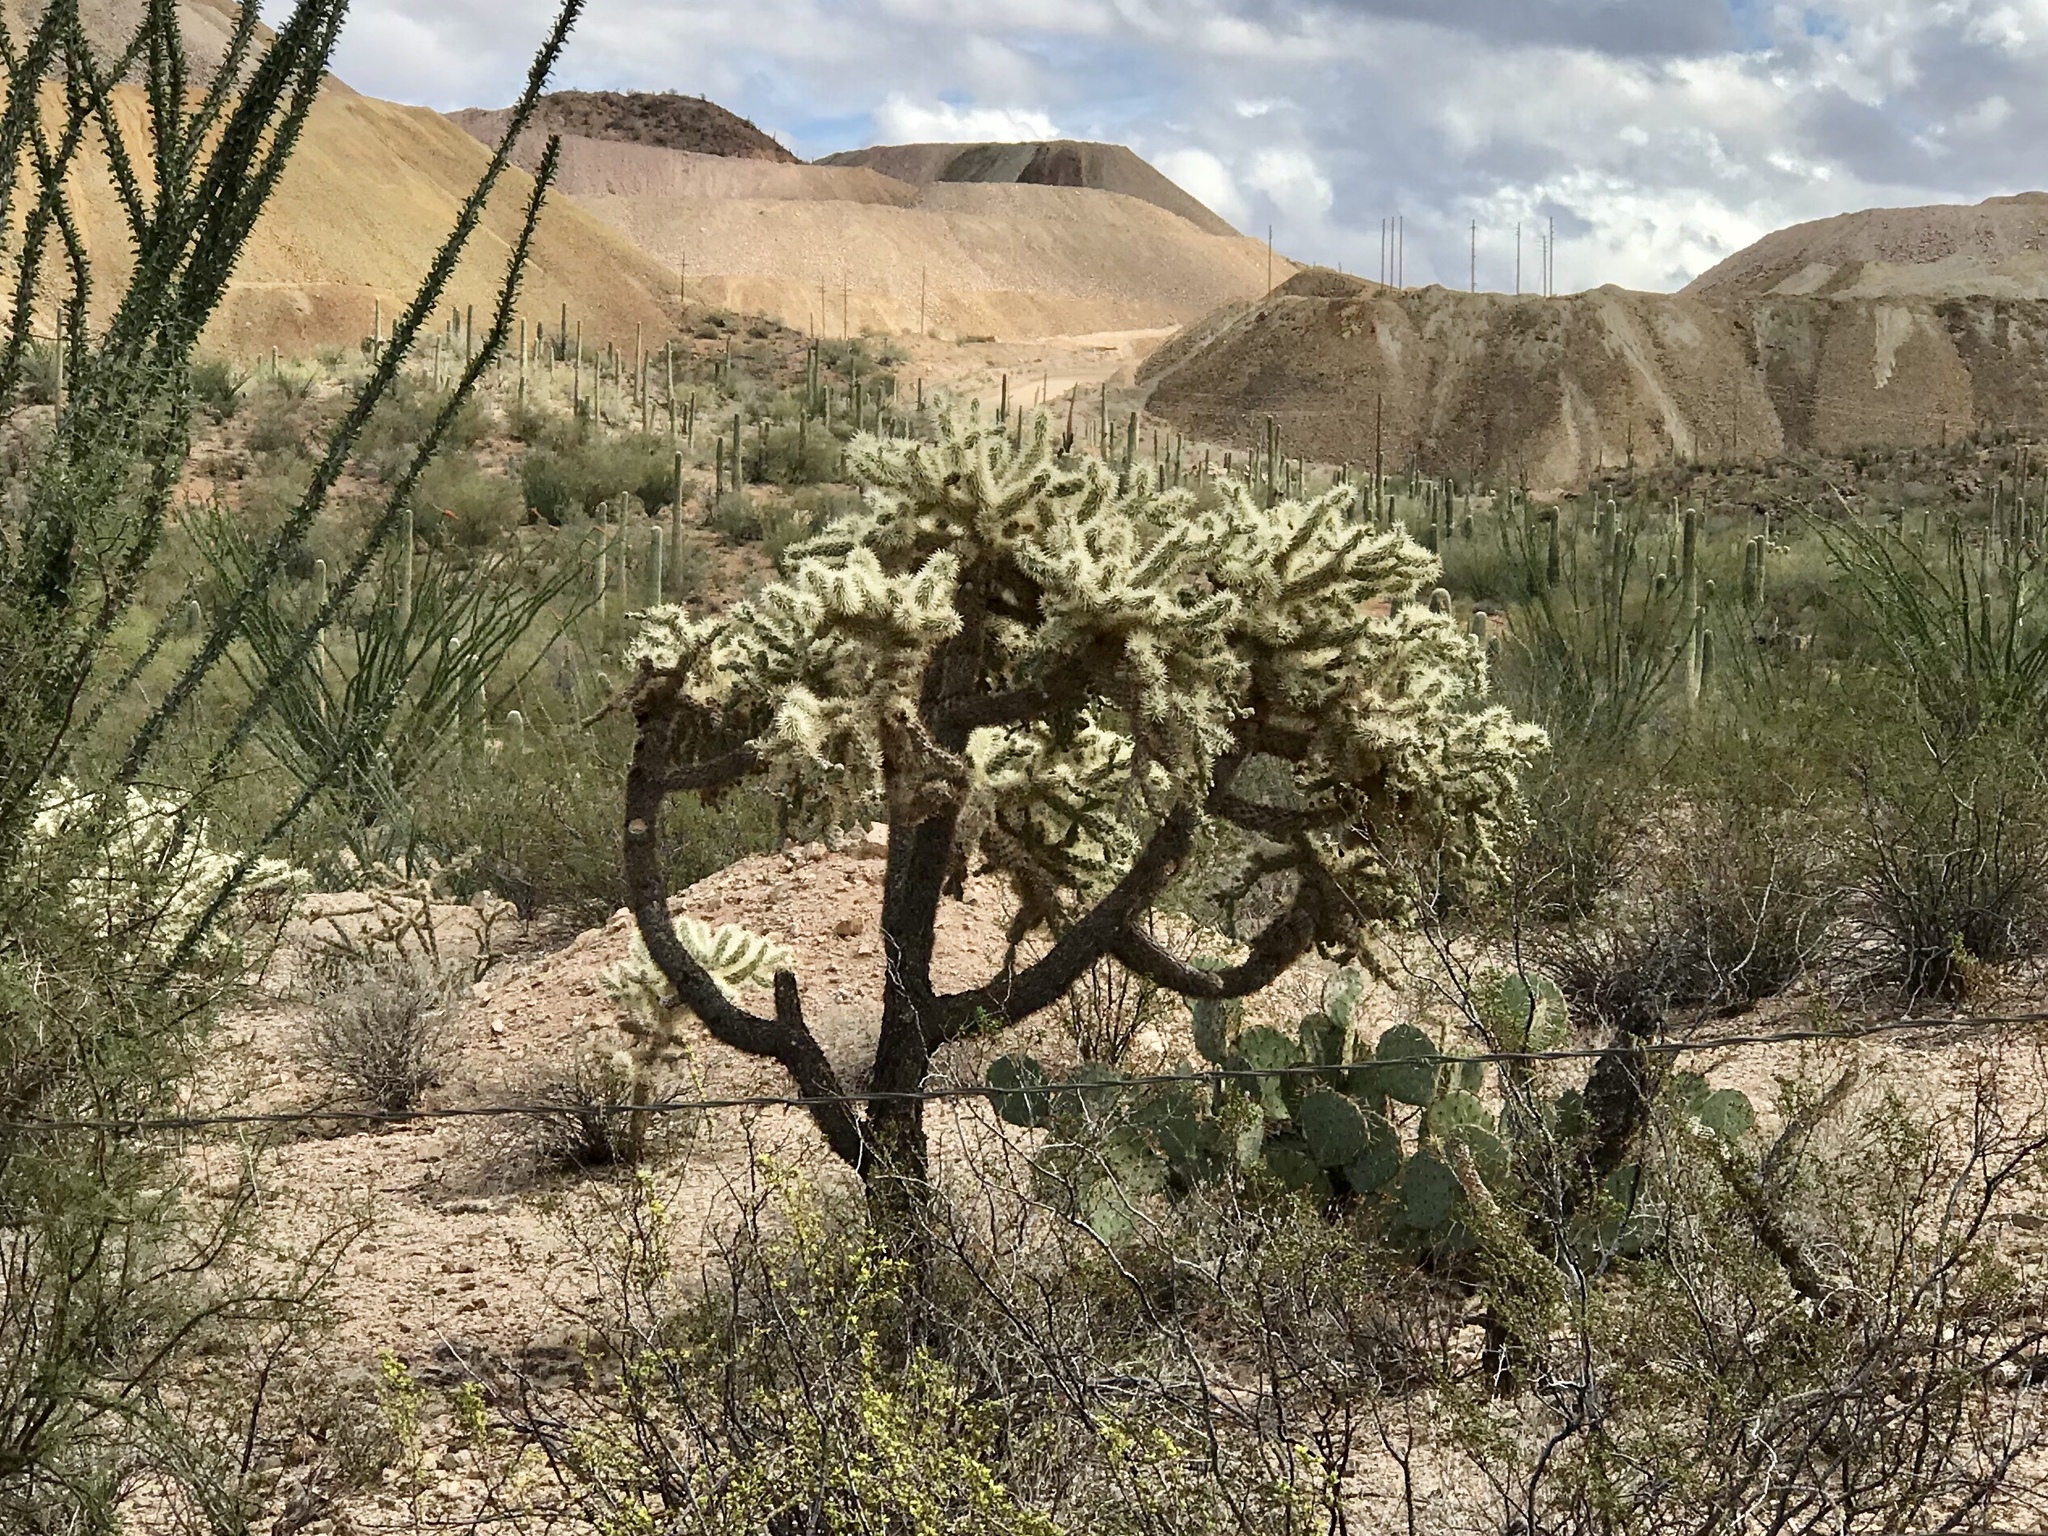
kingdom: Plantae
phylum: Tracheophyta
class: Magnoliopsida
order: Caryophyllales
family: Cactaceae
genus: Cylindropuntia
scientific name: Cylindropuntia fulgida
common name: Jumping cholla
